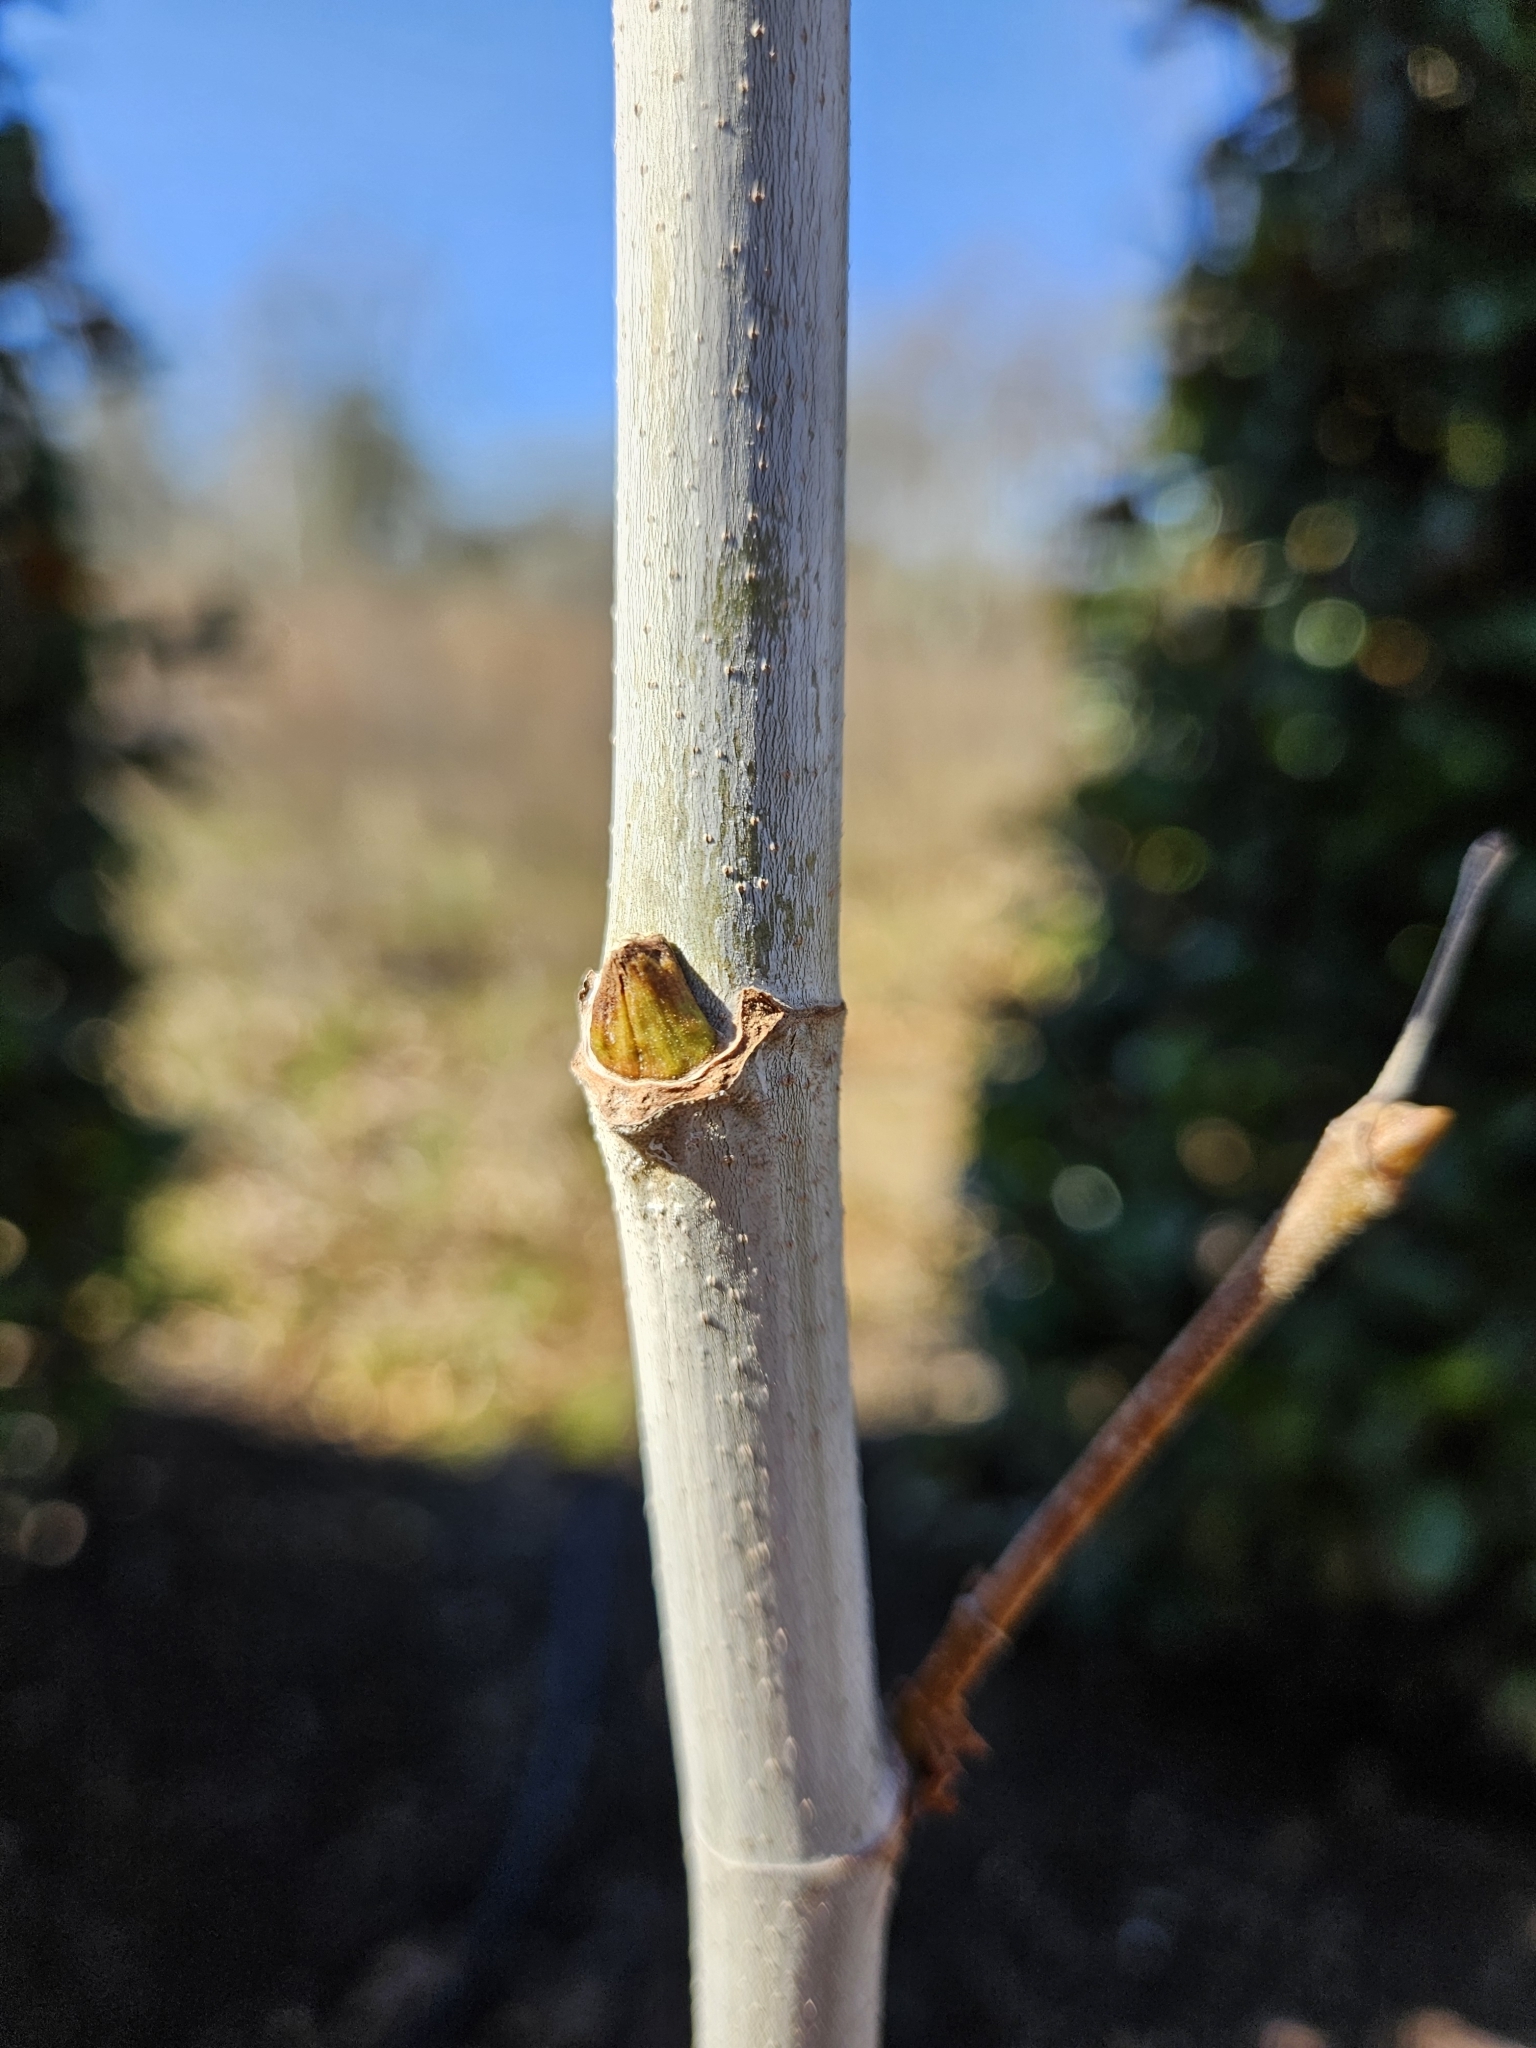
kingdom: Plantae
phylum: Tracheophyta
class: Magnoliopsida
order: Proteales
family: Platanaceae
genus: Platanus
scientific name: Platanus occidentalis
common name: American sycamore
